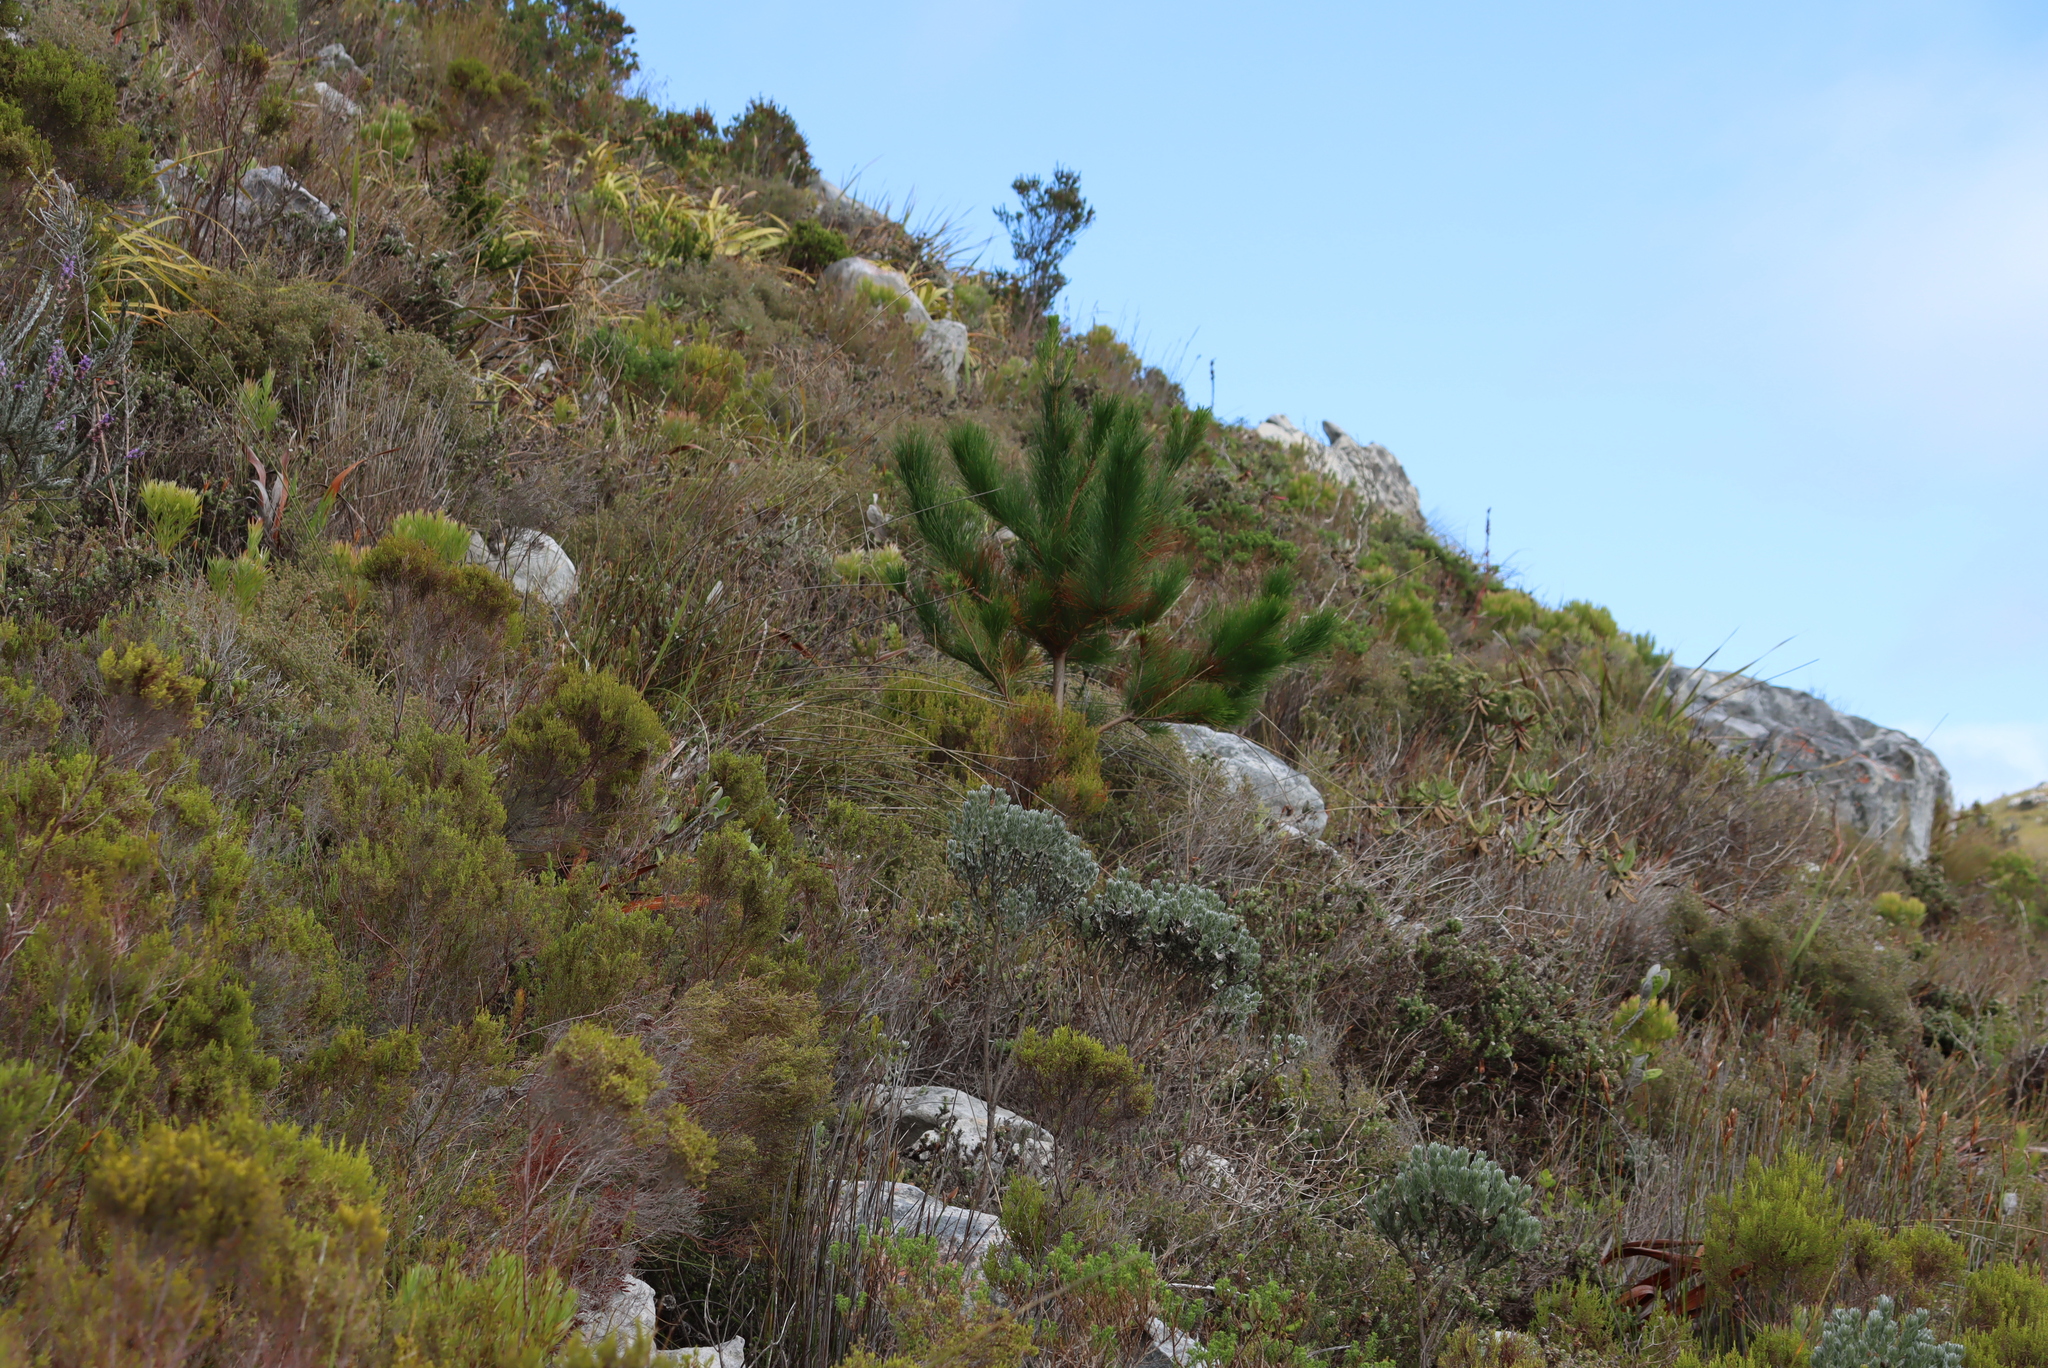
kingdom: Plantae
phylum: Tracheophyta
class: Pinopsida
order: Pinales
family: Pinaceae
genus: Pinus
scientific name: Pinus radiata
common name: Monterey pine
